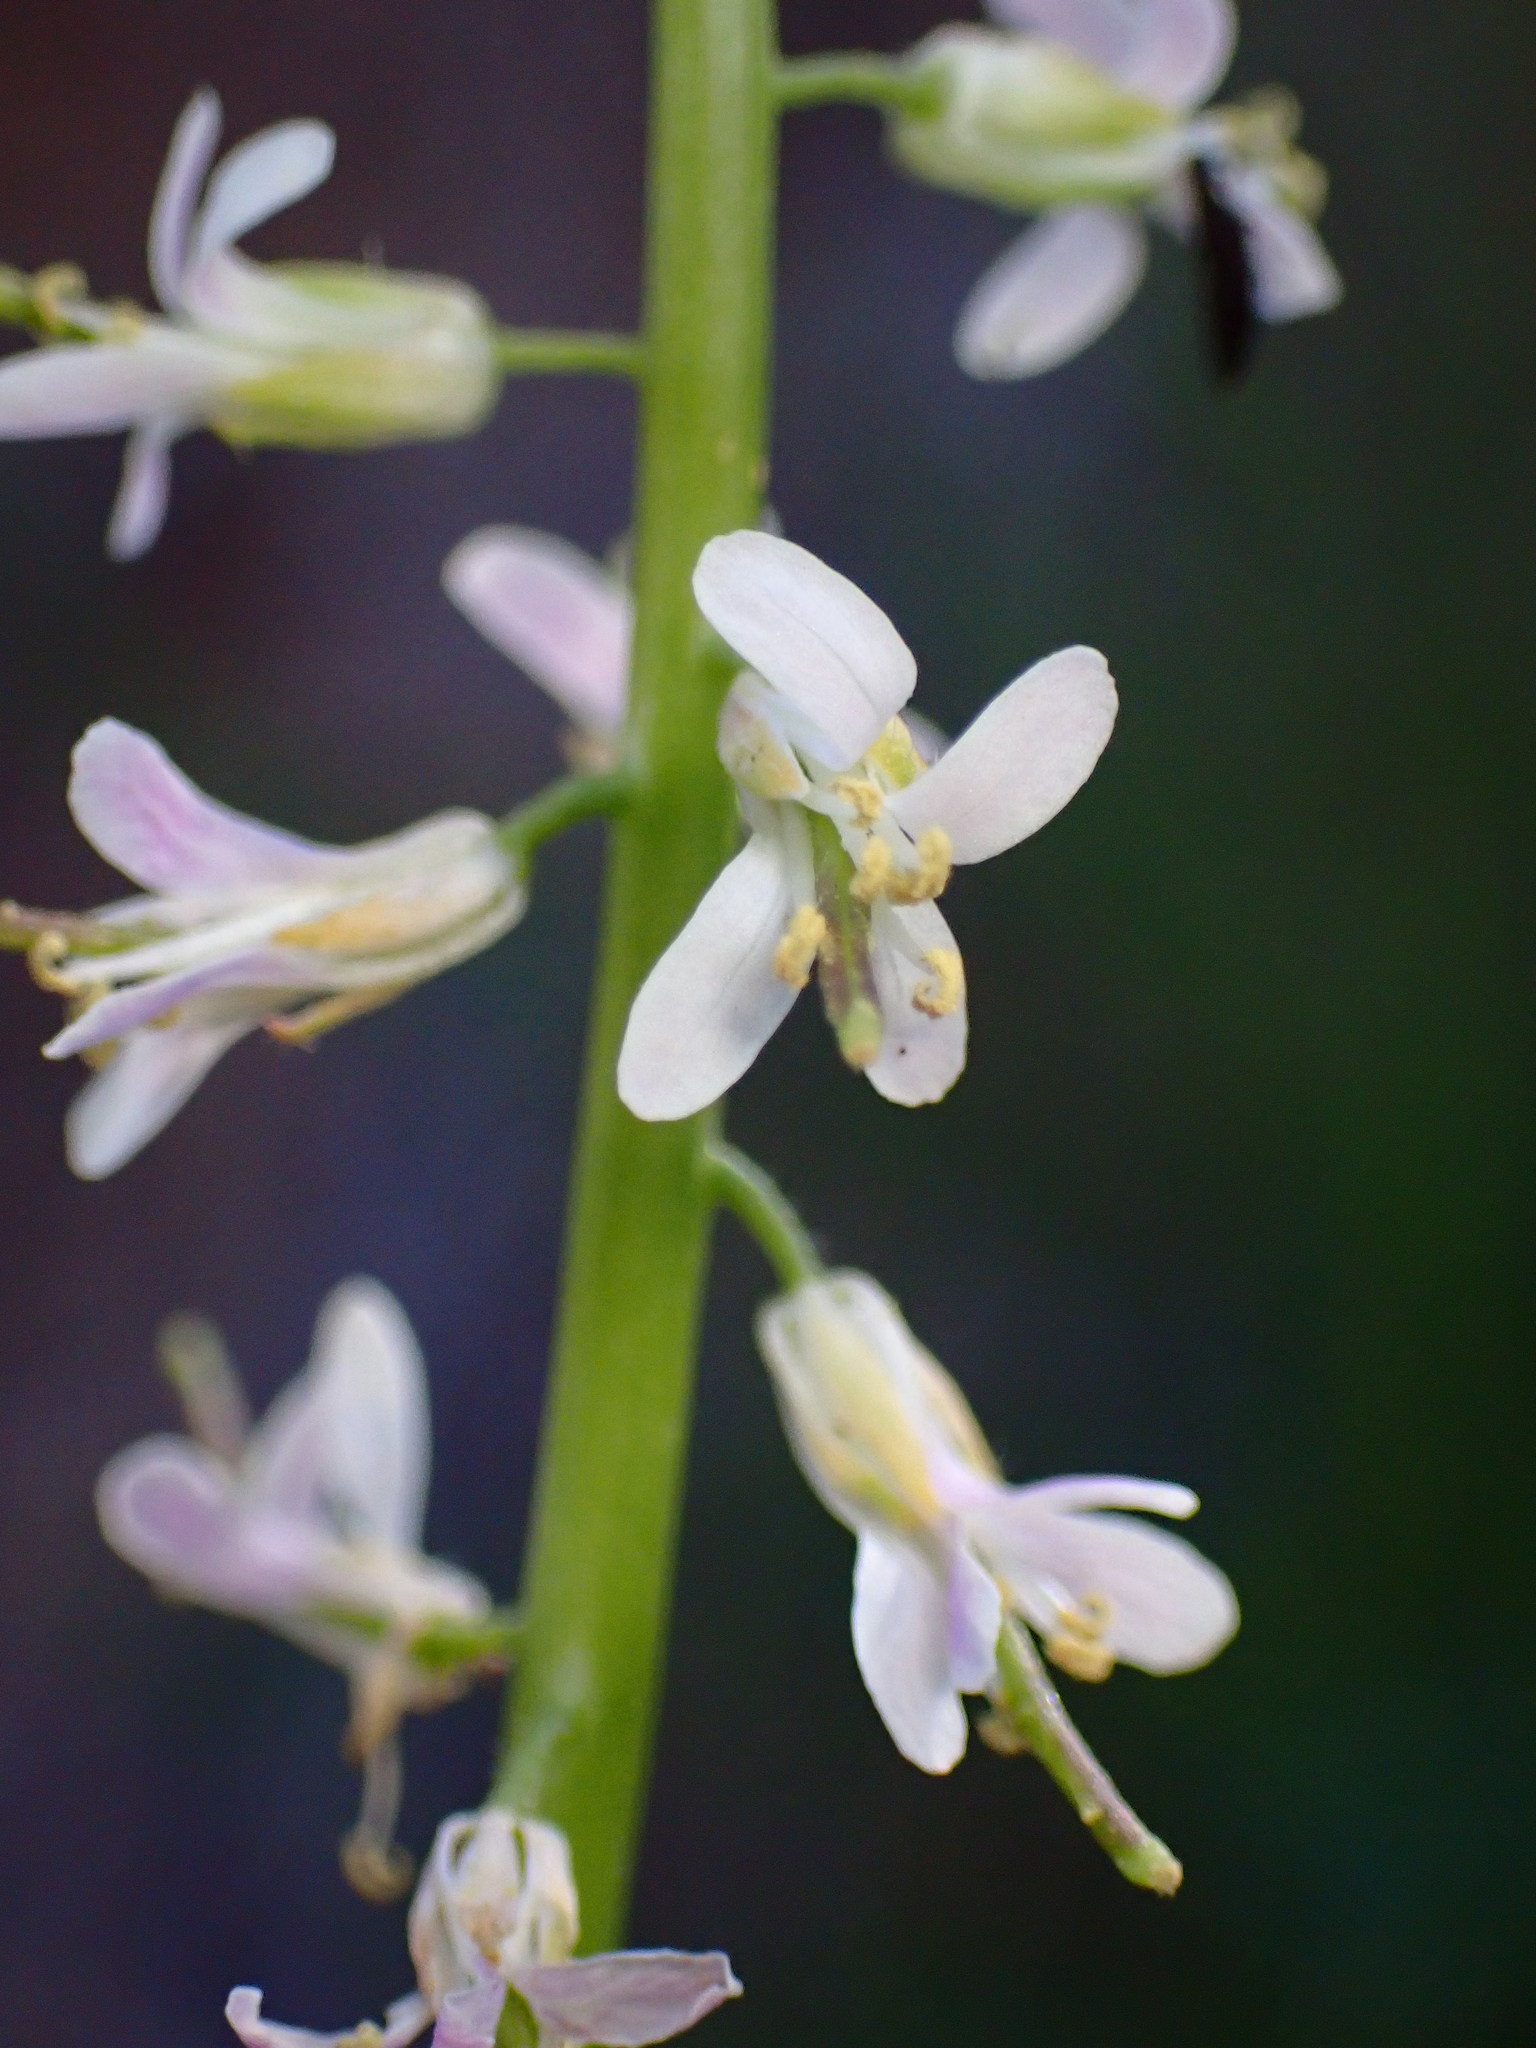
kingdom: Plantae
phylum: Tracheophyta
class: Magnoliopsida
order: Brassicales
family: Brassicaceae
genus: Streptanthus
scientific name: Streptanthus lasiophyllus
